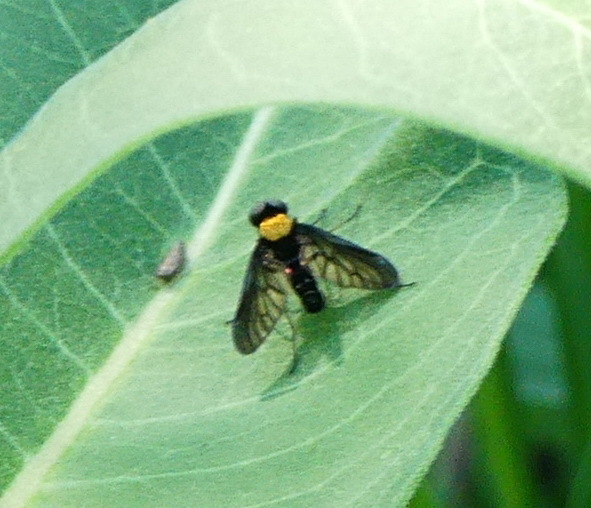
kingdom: Animalia
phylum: Arthropoda
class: Insecta
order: Diptera
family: Rhagionidae
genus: Chrysopilus
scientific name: Chrysopilus thoracicus
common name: Golden-backed snipe fly
